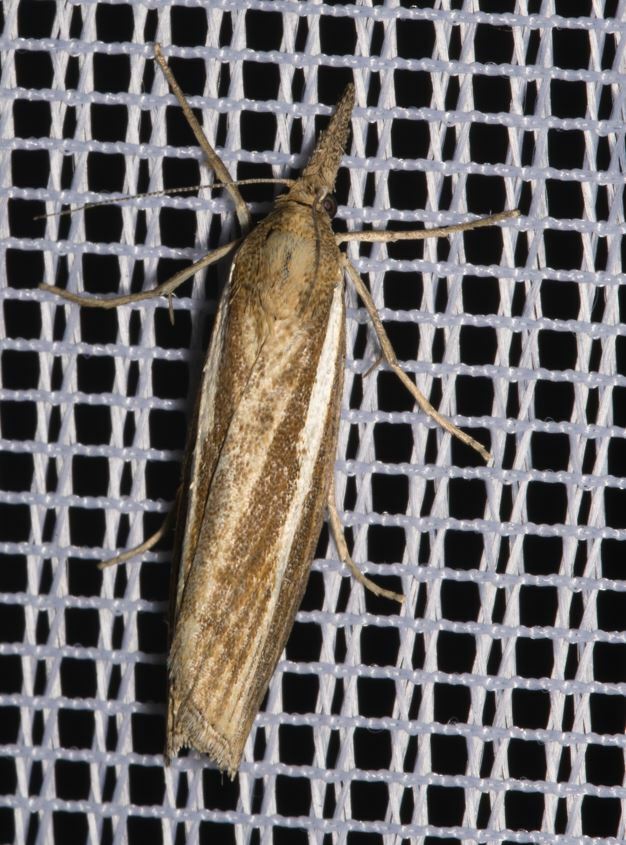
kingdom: Animalia
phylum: Arthropoda
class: Insecta
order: Lepidoptera
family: Crambidae
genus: Agriphila
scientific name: Agriphila tristellus
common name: Common grass-veneer
